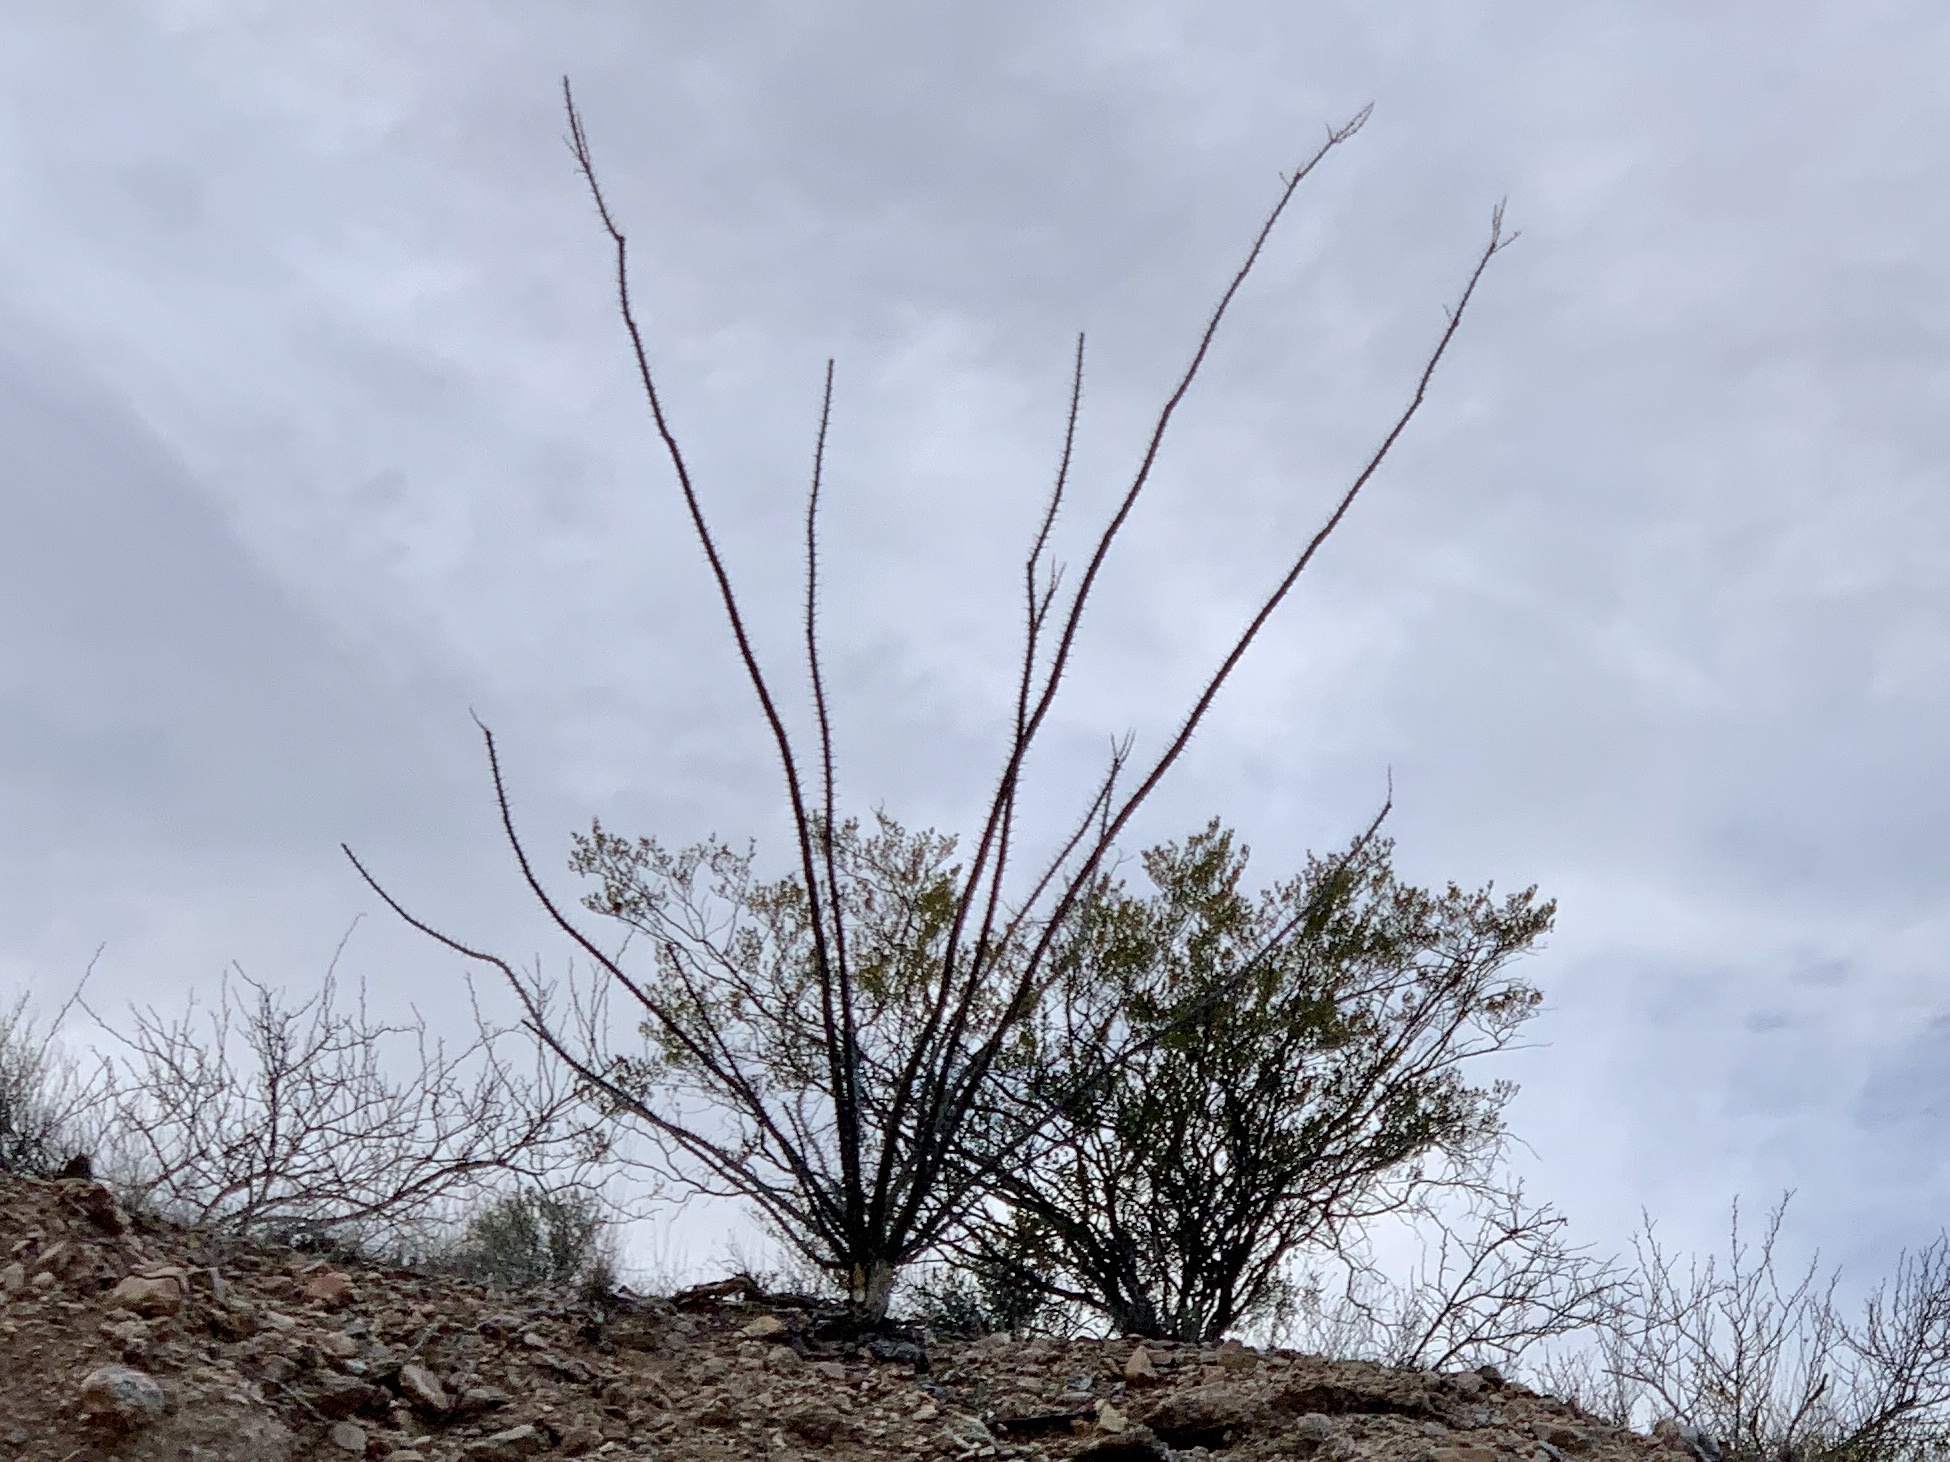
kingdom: Plantae
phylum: Tracheophyta
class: Magnoliopsida
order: Ericales
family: Fouquieriaceae
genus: Fouquieria
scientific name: Fouquieria splendens
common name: Vine-cactus
